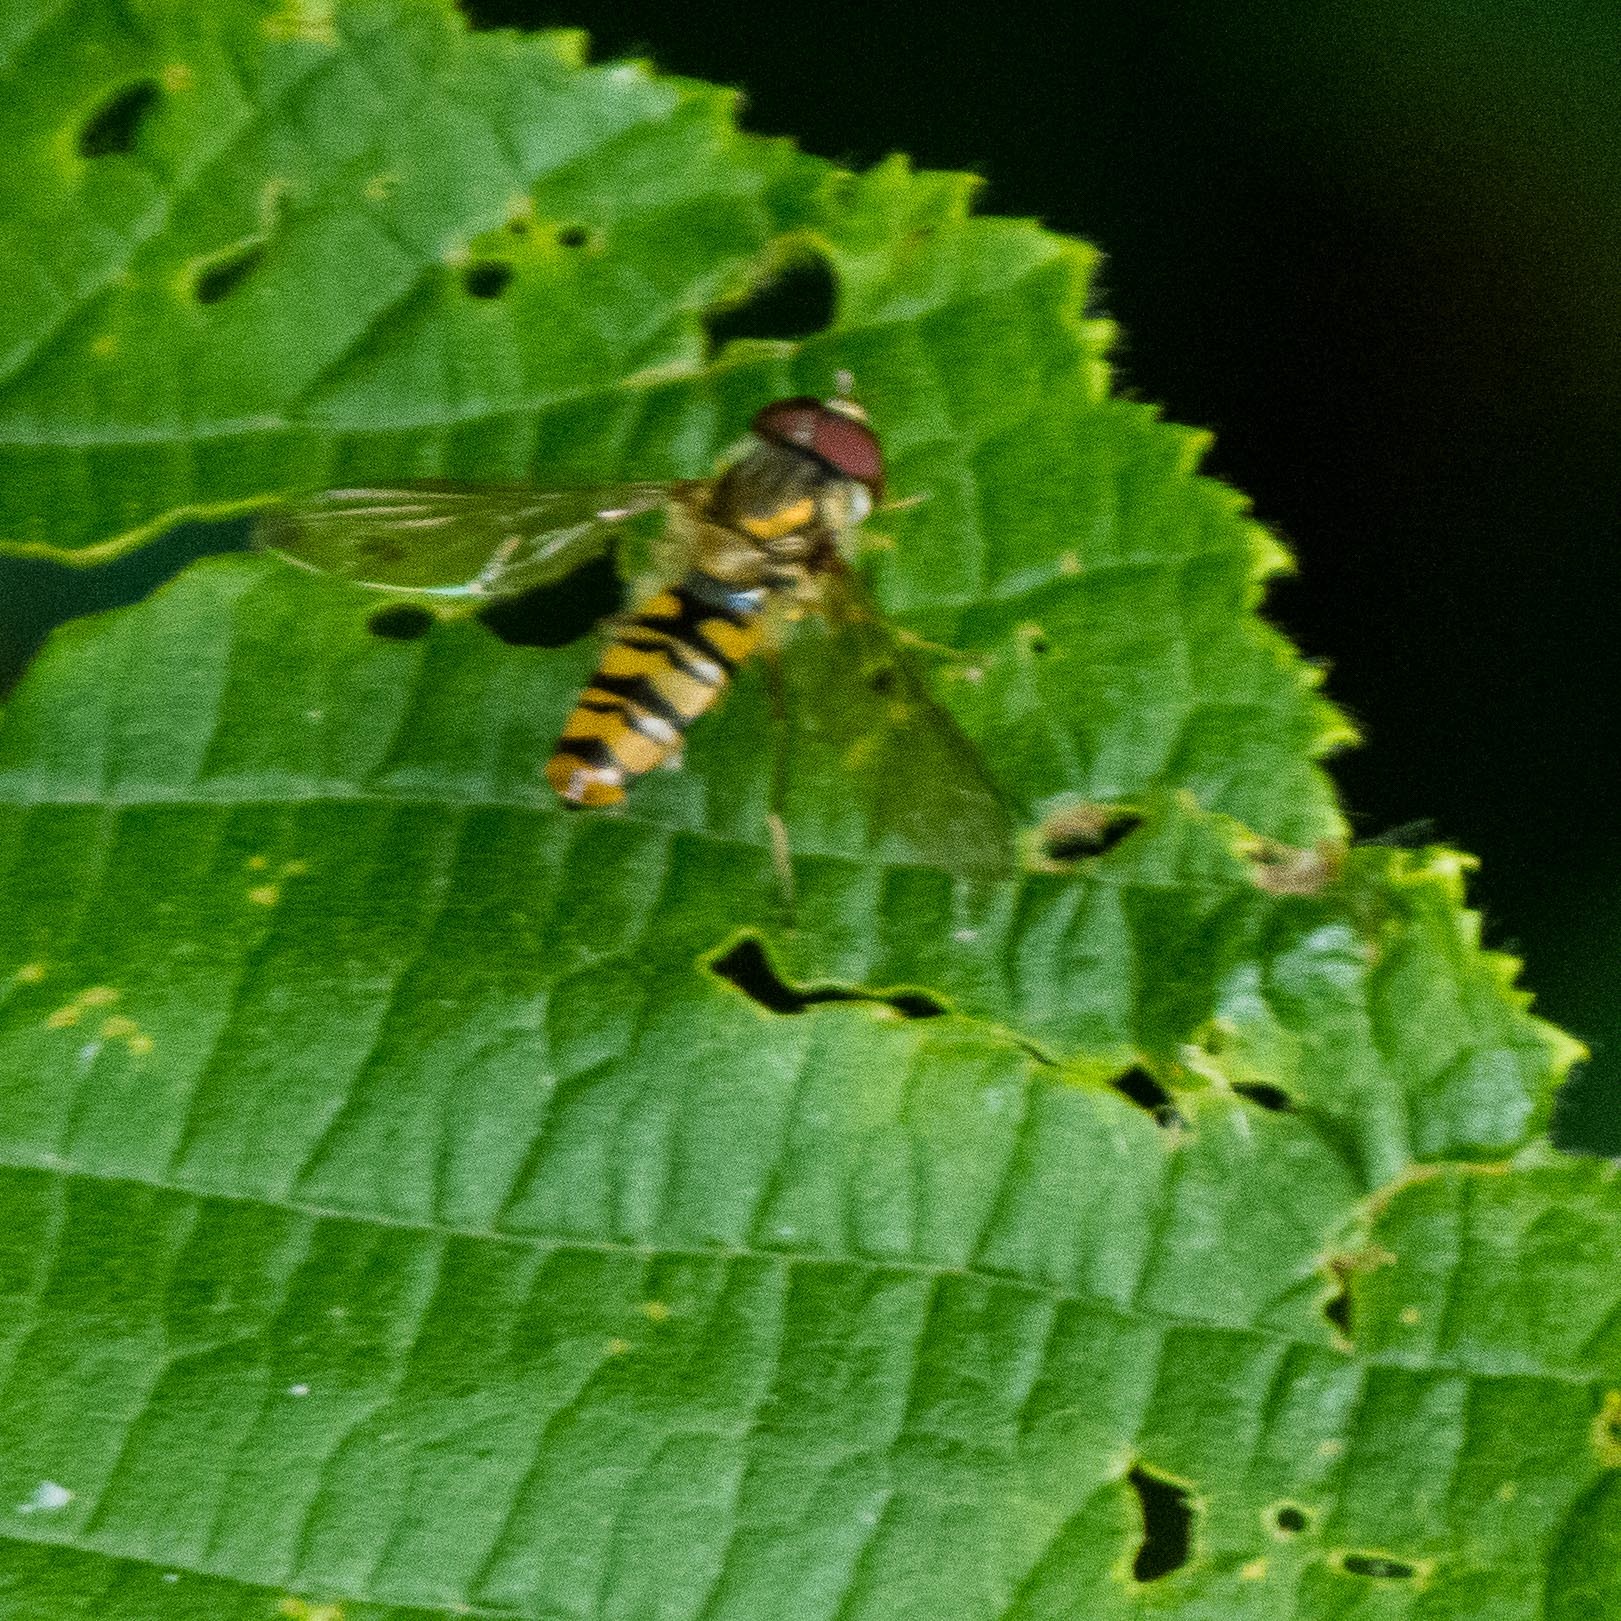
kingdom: Animalia
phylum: Arthropoda
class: Insecta
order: Diptera
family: Syrphidae
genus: Episyrphus
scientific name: Episyrphus balteatus
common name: Marmalade hoverfly
